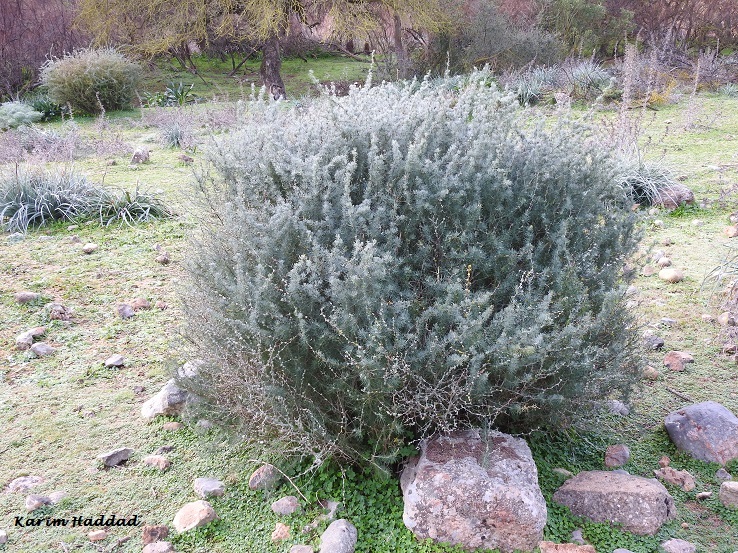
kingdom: Plantae
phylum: Tracheophyta
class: Liliopsida
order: Asparagales
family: Asparagaceae
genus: Asparagus
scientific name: Asparagus albus
